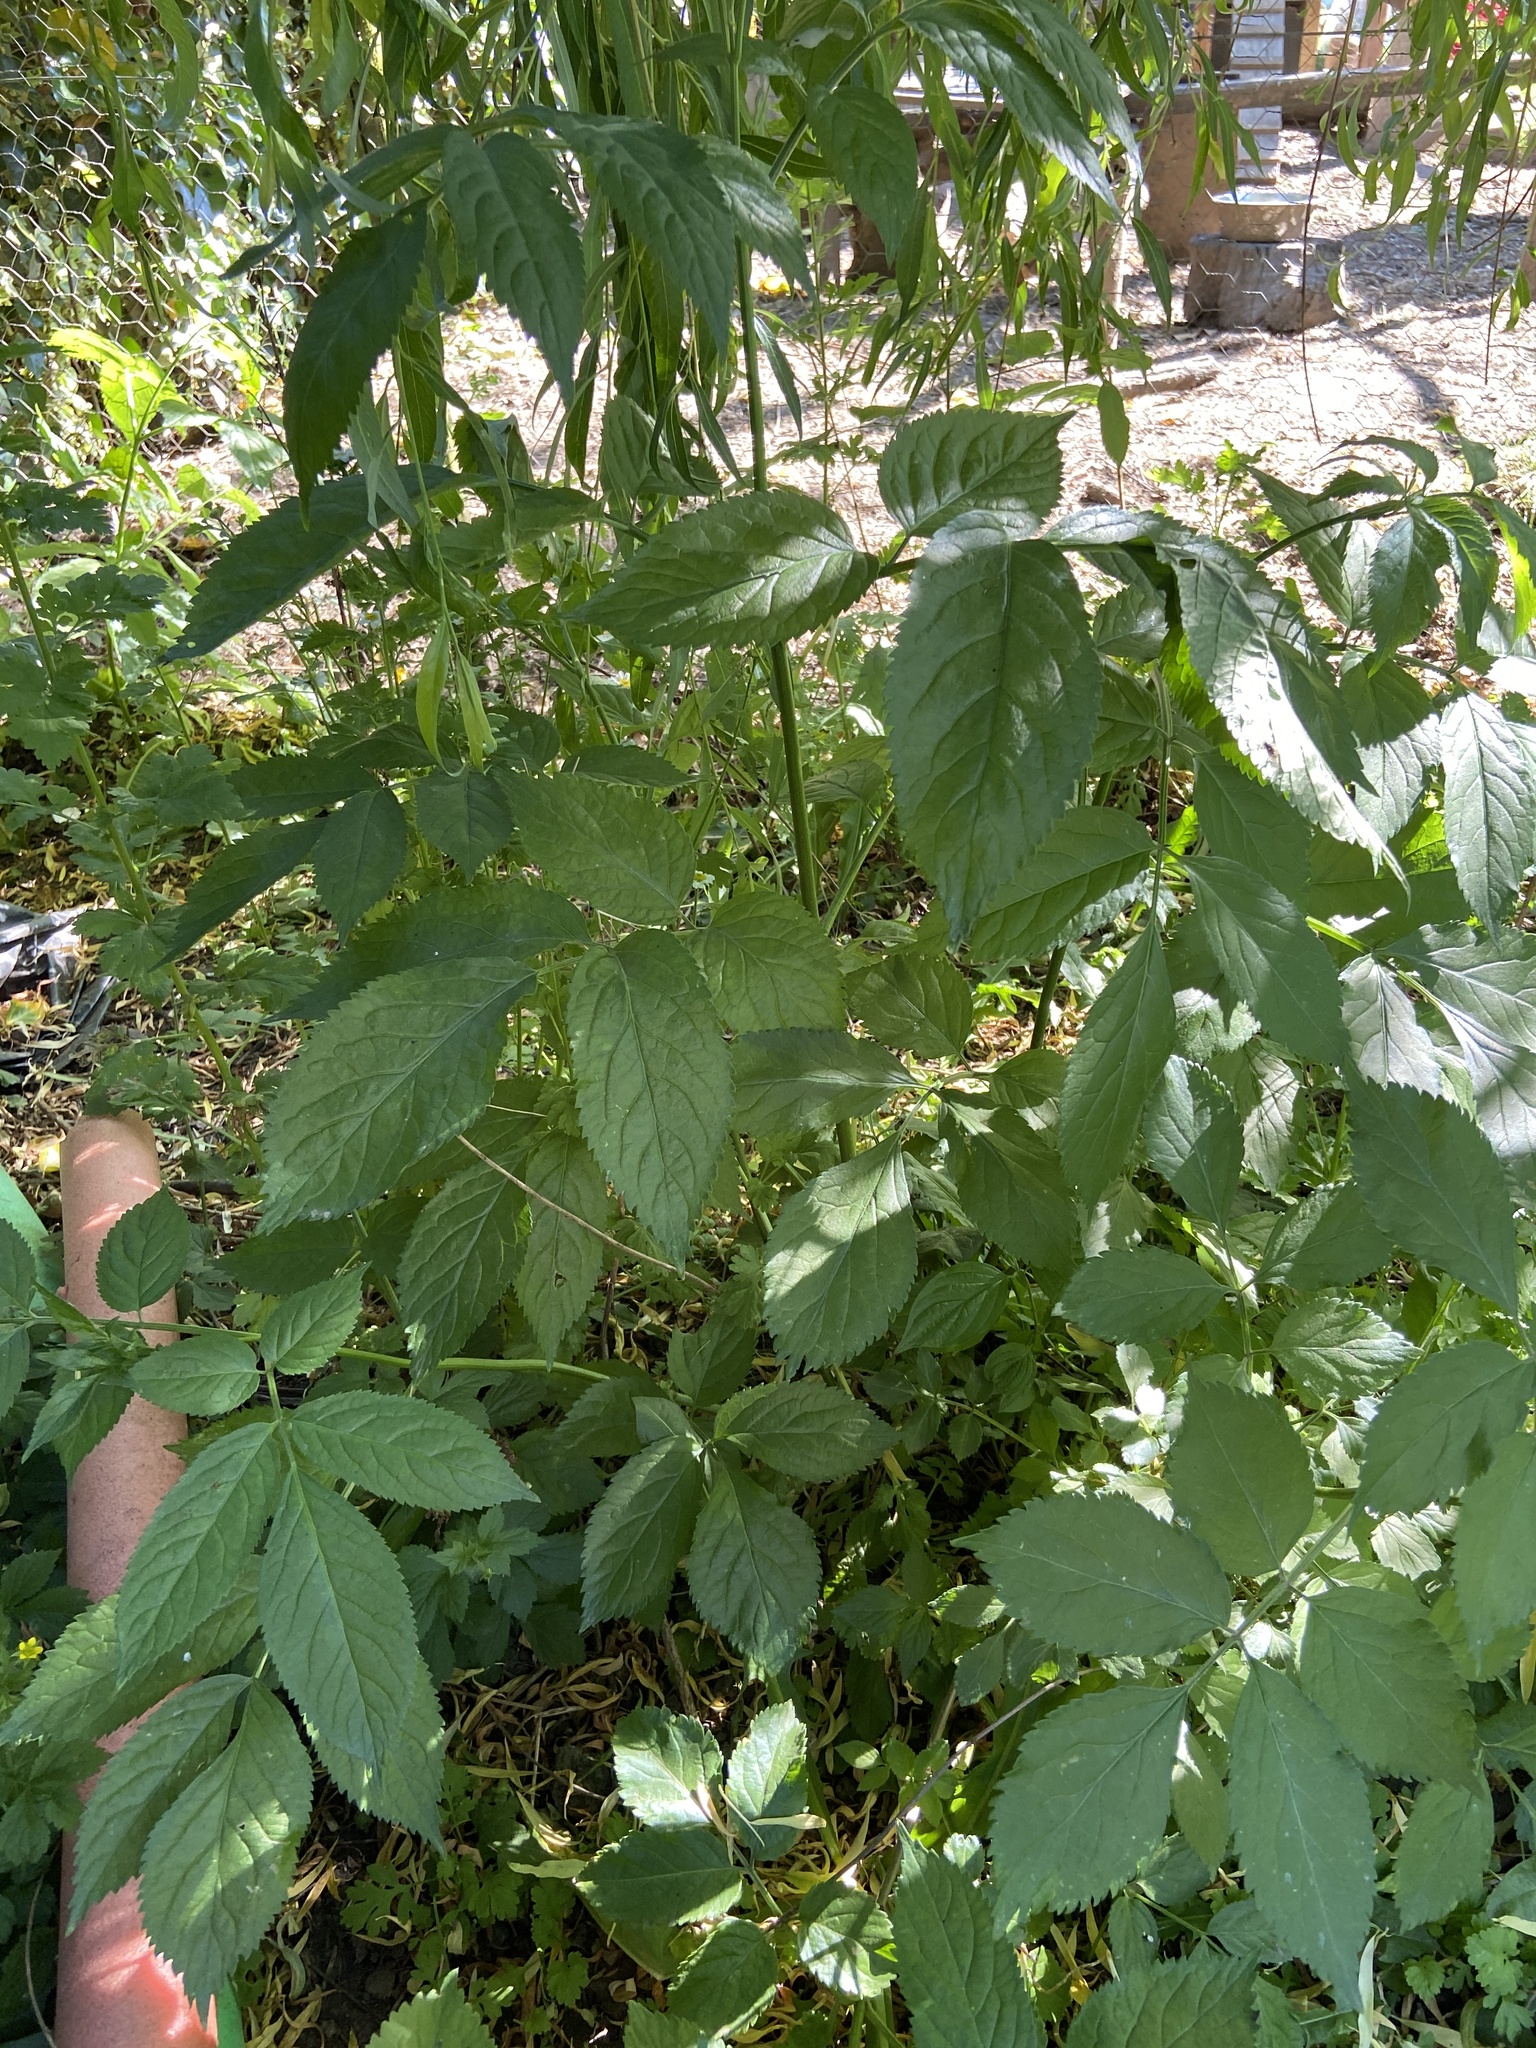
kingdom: Plantae
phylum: Tracheophyta
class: Magnoliopsida
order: Dipsacales
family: Viburnaceae
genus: Sambucus
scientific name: Sambucus nigra
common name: Elder
